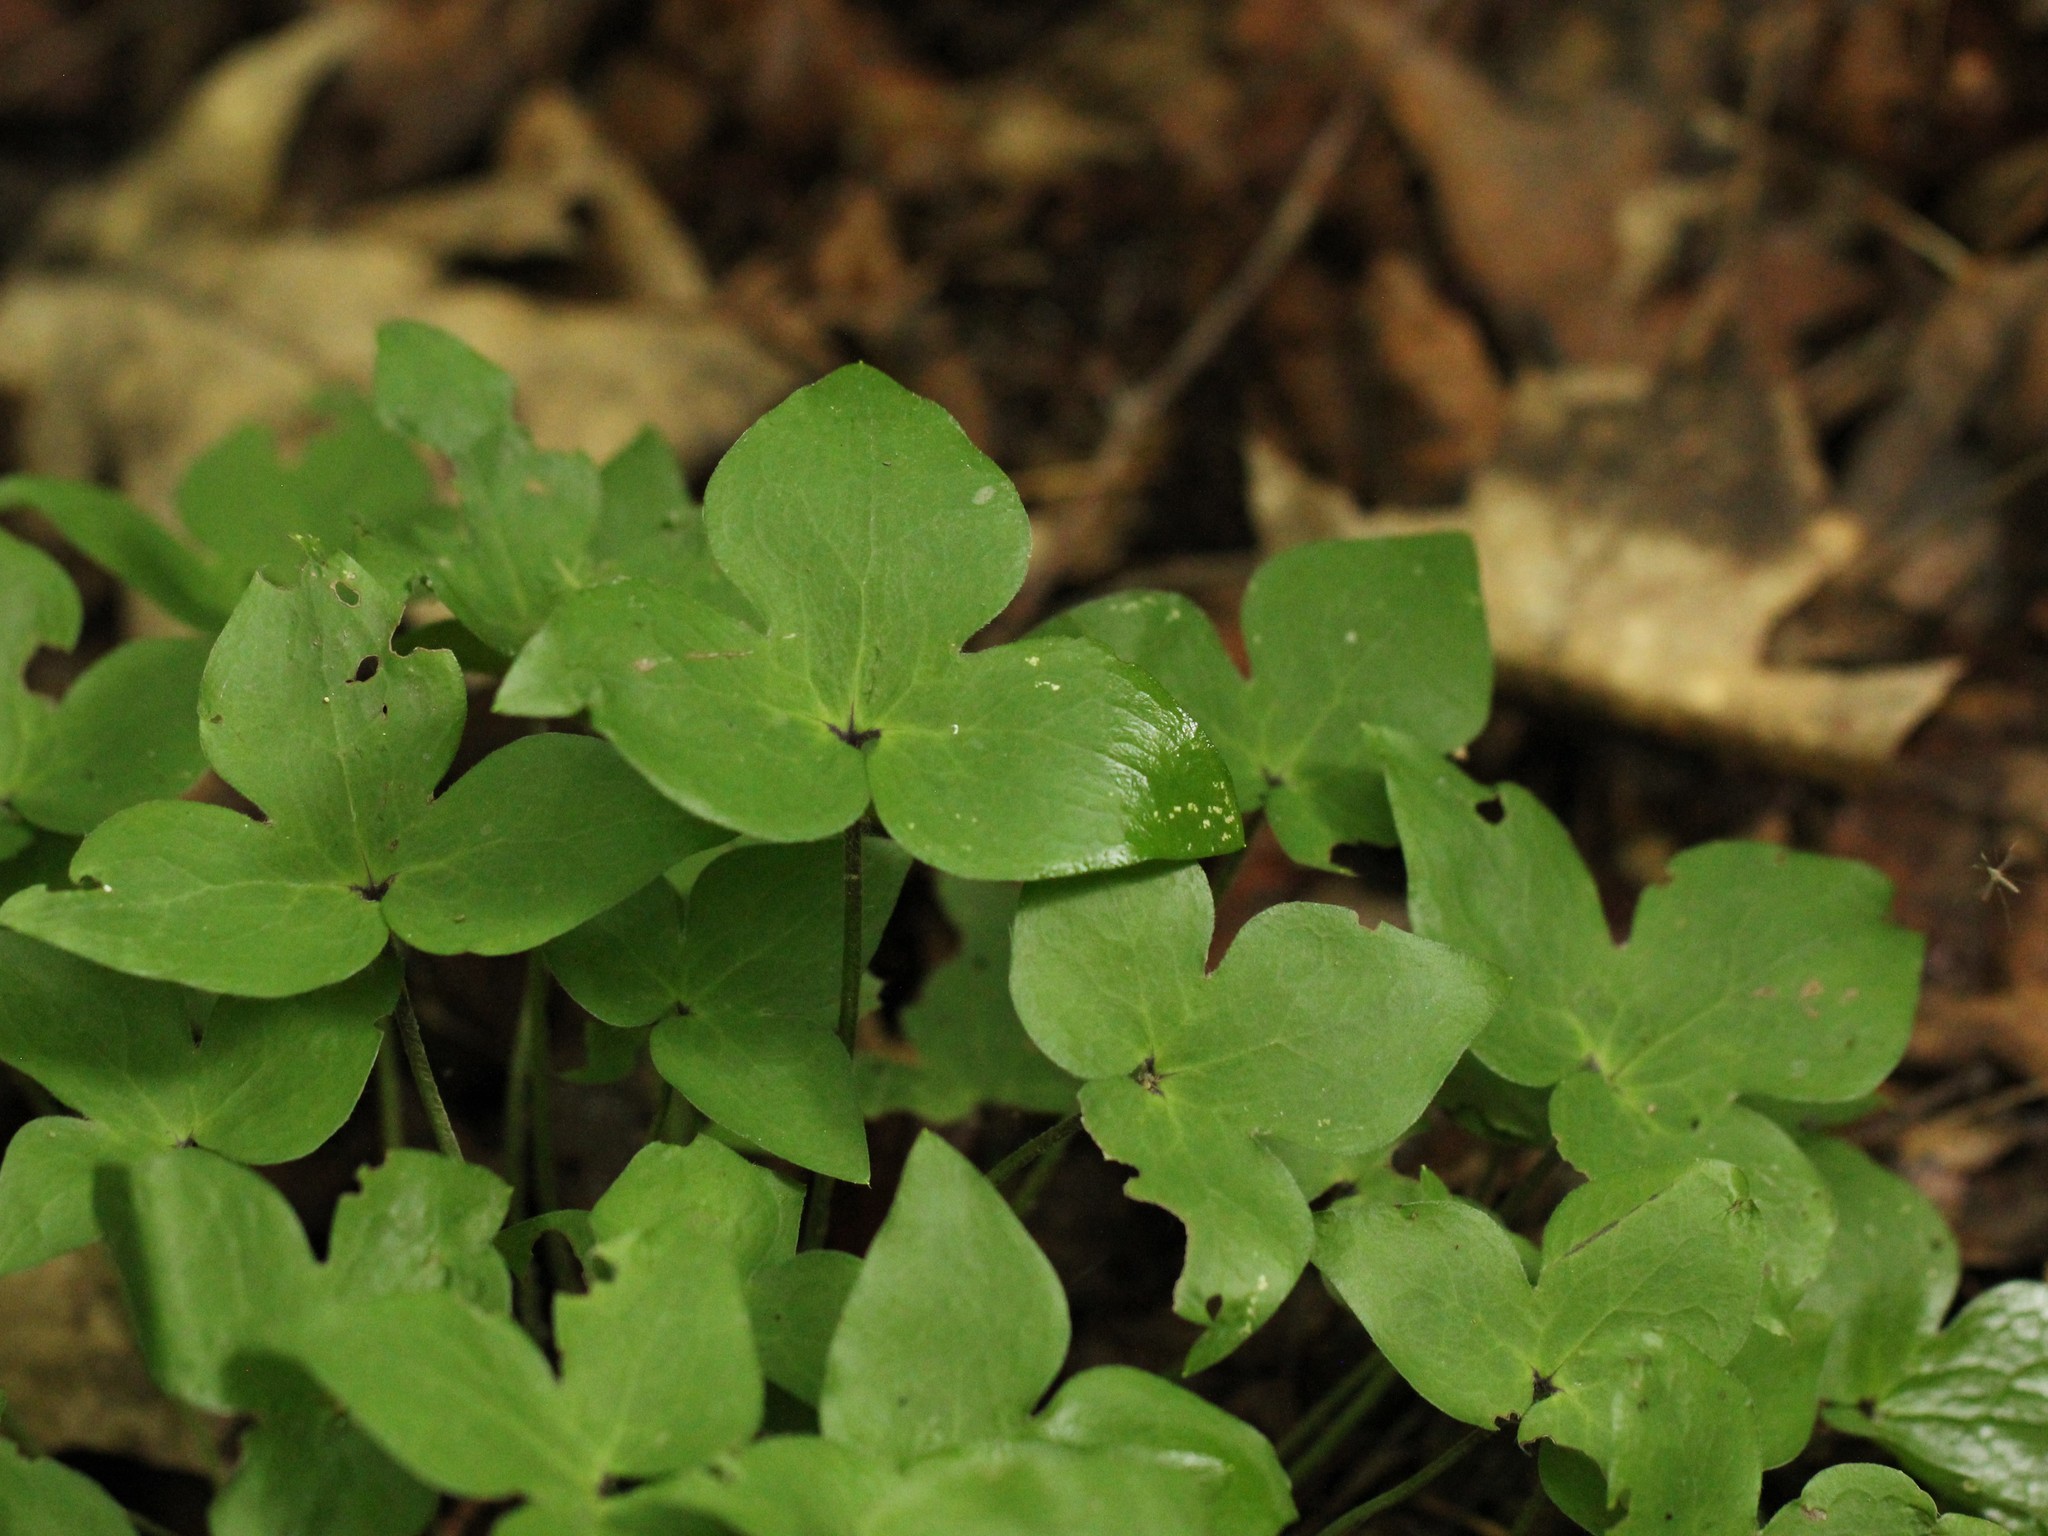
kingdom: Plantae
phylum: Tracheophyta
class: Magnoliopsida
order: Ranunculales
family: Ranunculaceae
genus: Hepatica
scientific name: Hepatica acutiloba
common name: Sharp-lobed hepatica
